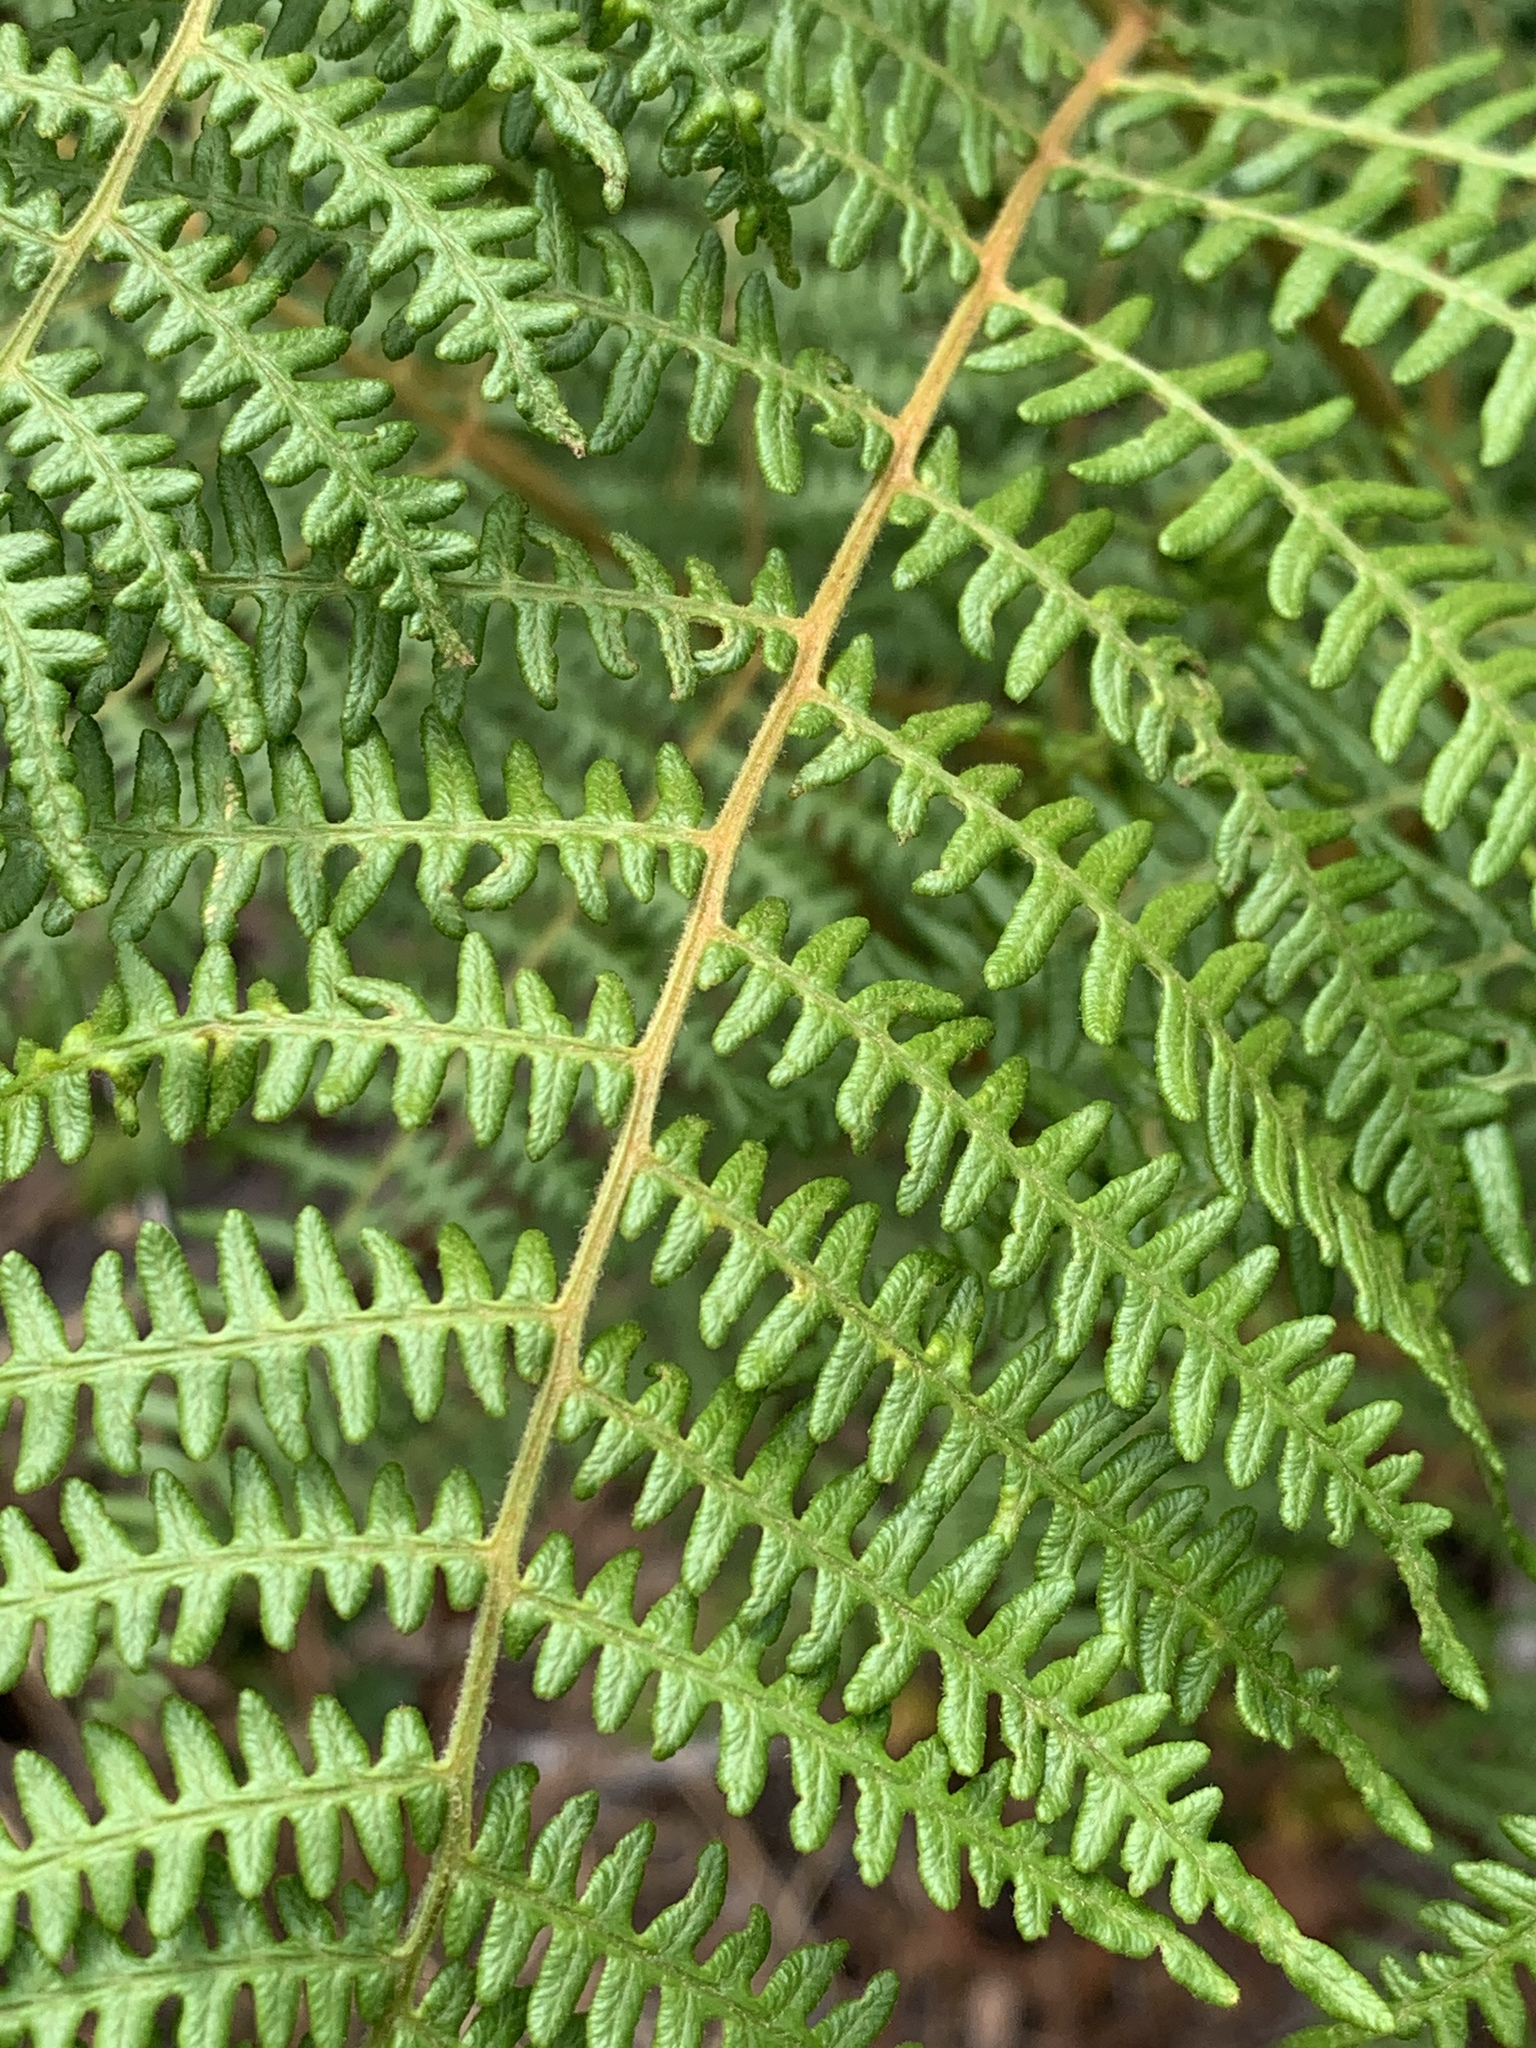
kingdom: Plantae
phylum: Tracheophyta
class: Polypodiopsida
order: Polypodiales
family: Dennstaedtiaceae
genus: Pteridium
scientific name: Pteridium aquilinum
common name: Bracken
